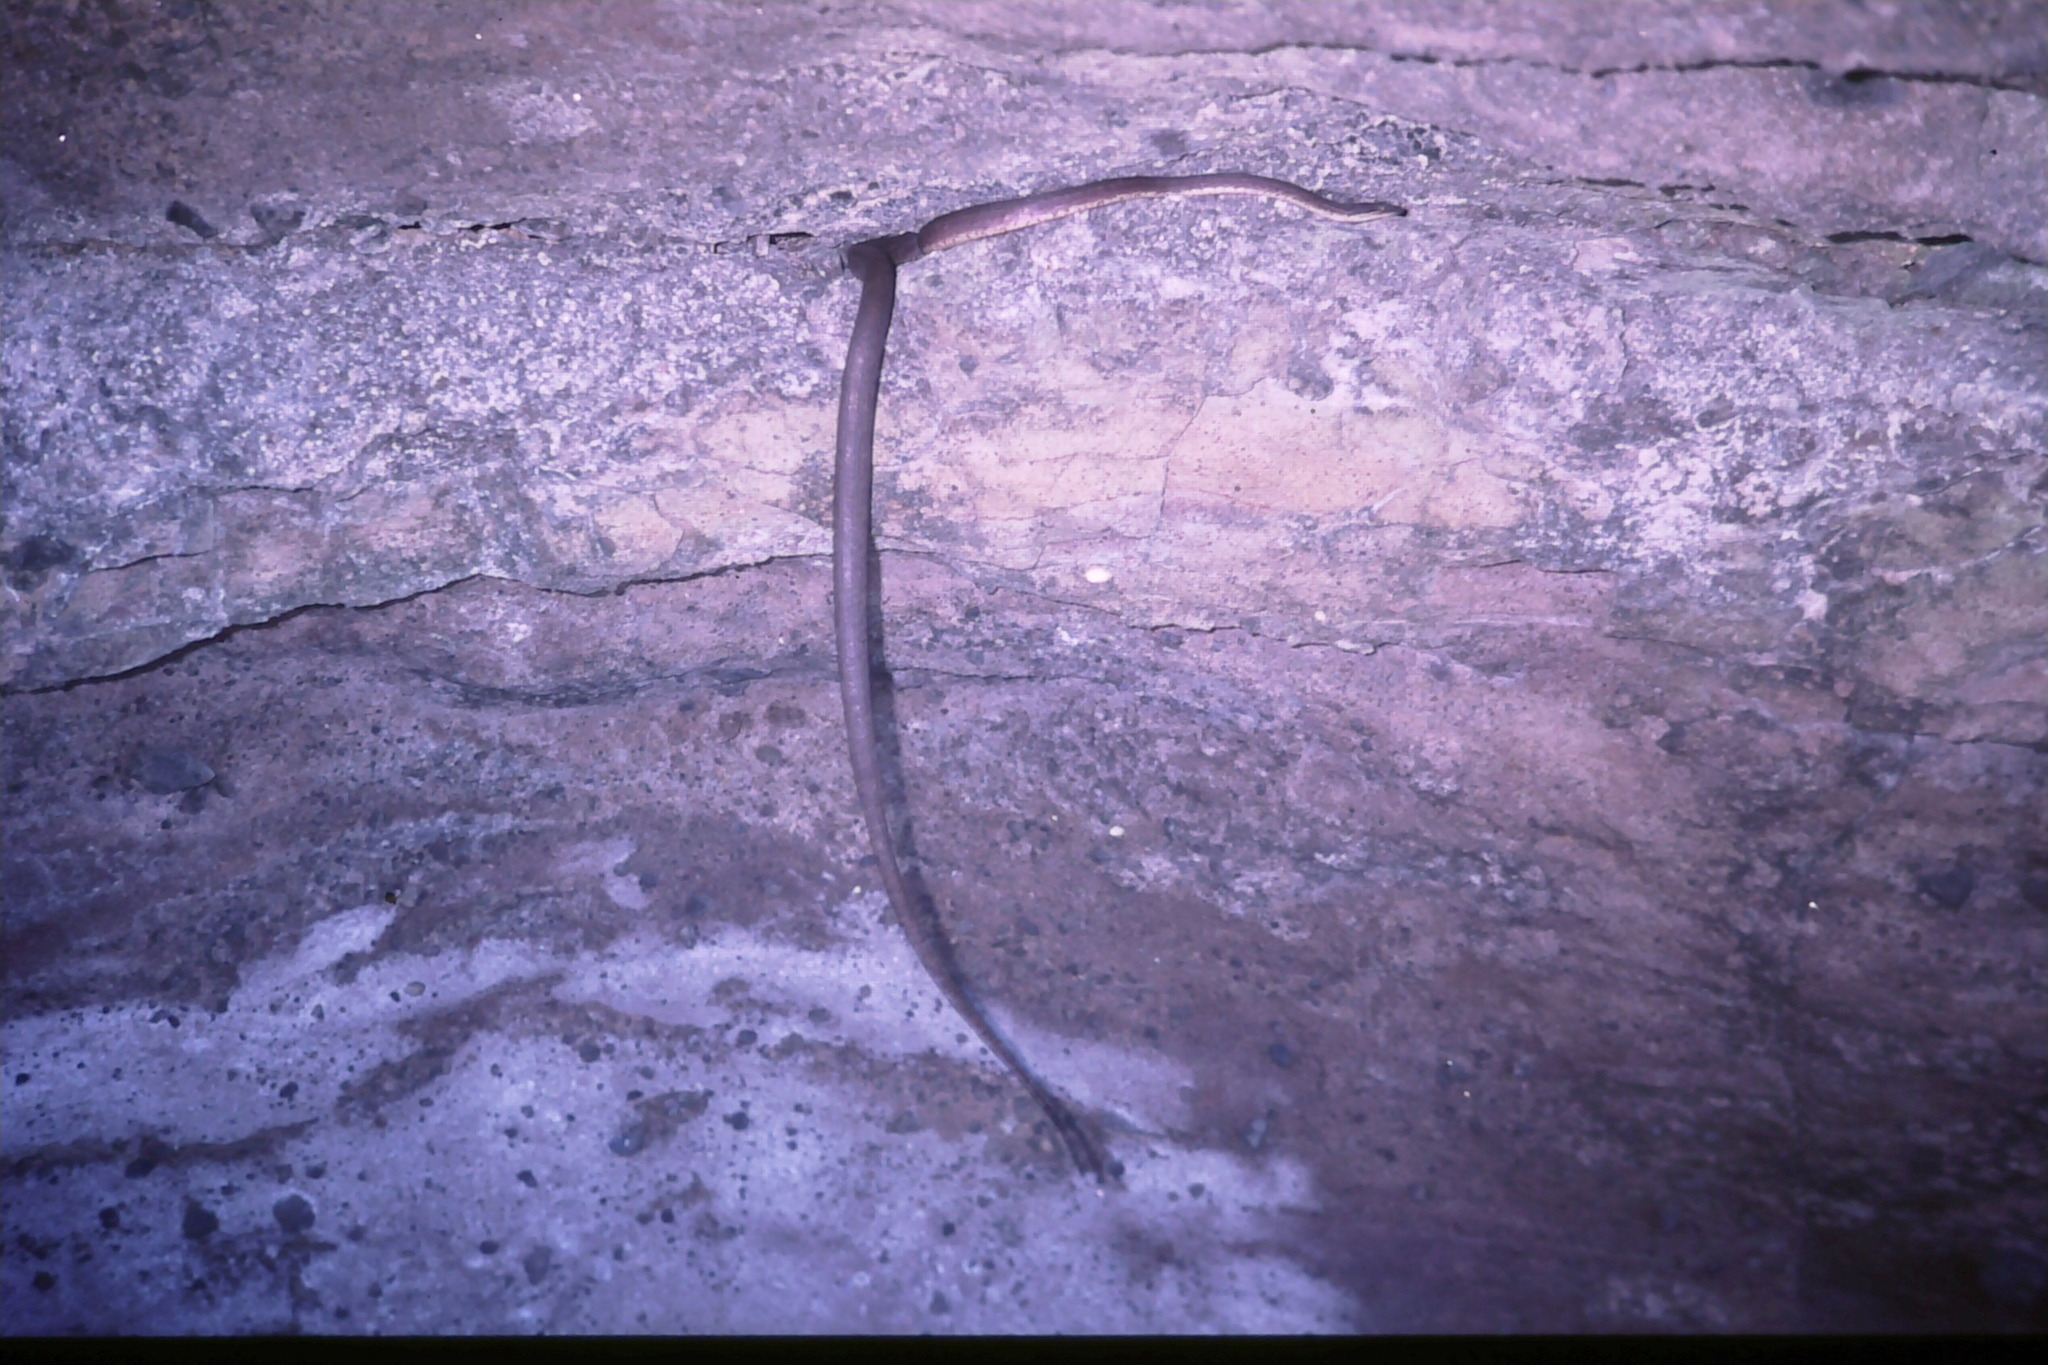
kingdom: Animalia
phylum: Chordata
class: Squamata
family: Bolyeriidae
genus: Casarea
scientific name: Casarea dussumieri
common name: Keel-scaled boa
